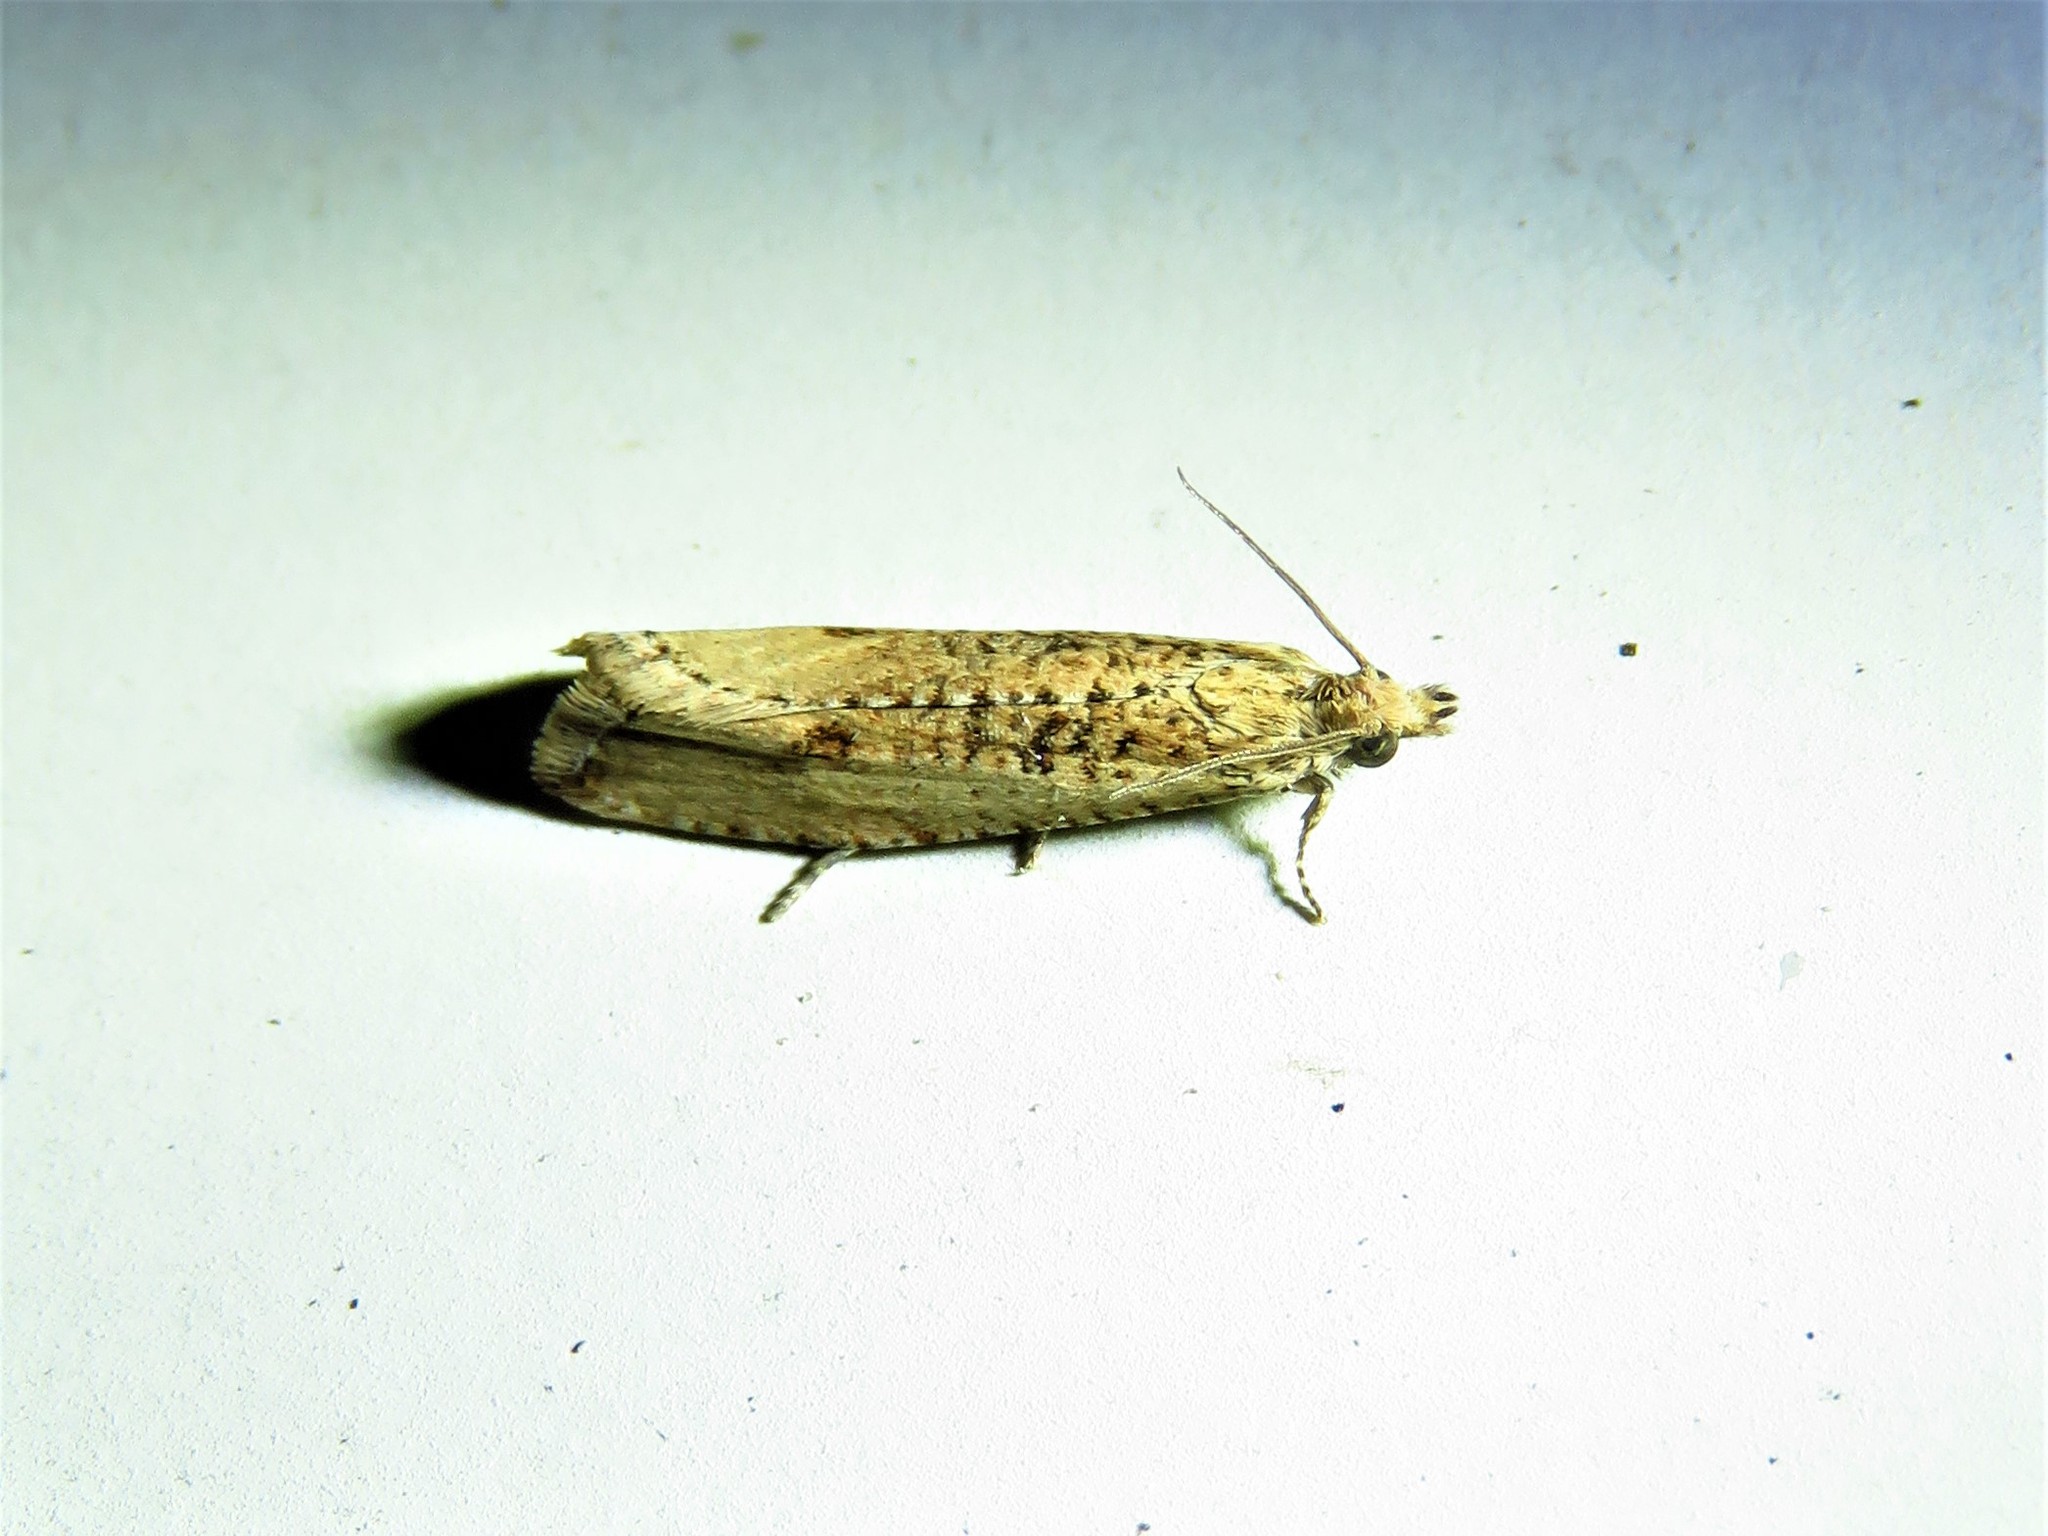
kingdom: Animalia
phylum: Arthropoda
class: Insecta
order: Lepidoptera
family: Tortricidae
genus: Bactra
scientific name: Bactra verutana
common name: Javelin moth
